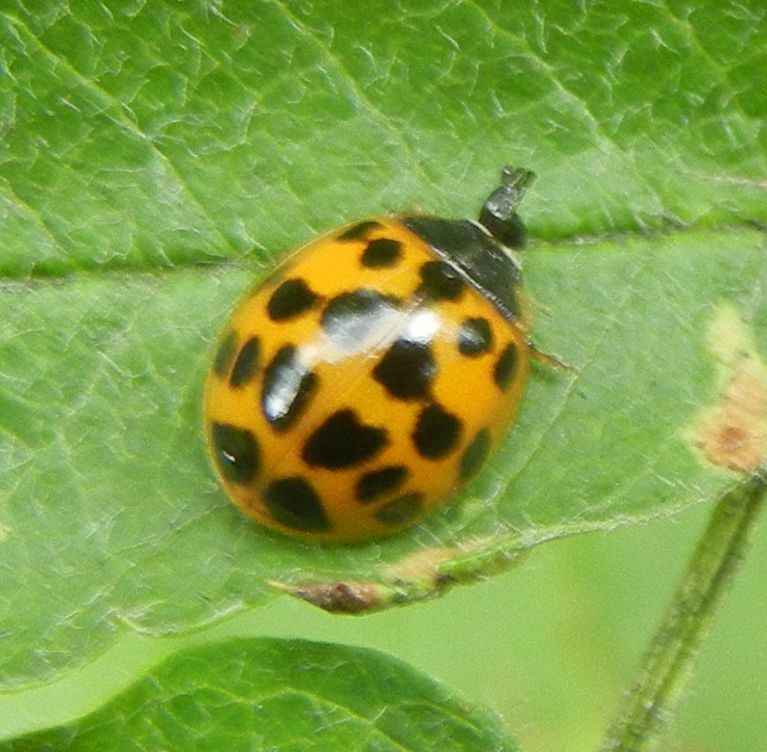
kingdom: Animalia
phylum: Arthropoda
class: Insecta
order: Coleoptera
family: Coccinellidae
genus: Harmonia
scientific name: Harmonia axyridis
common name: Harlequin ladybird
